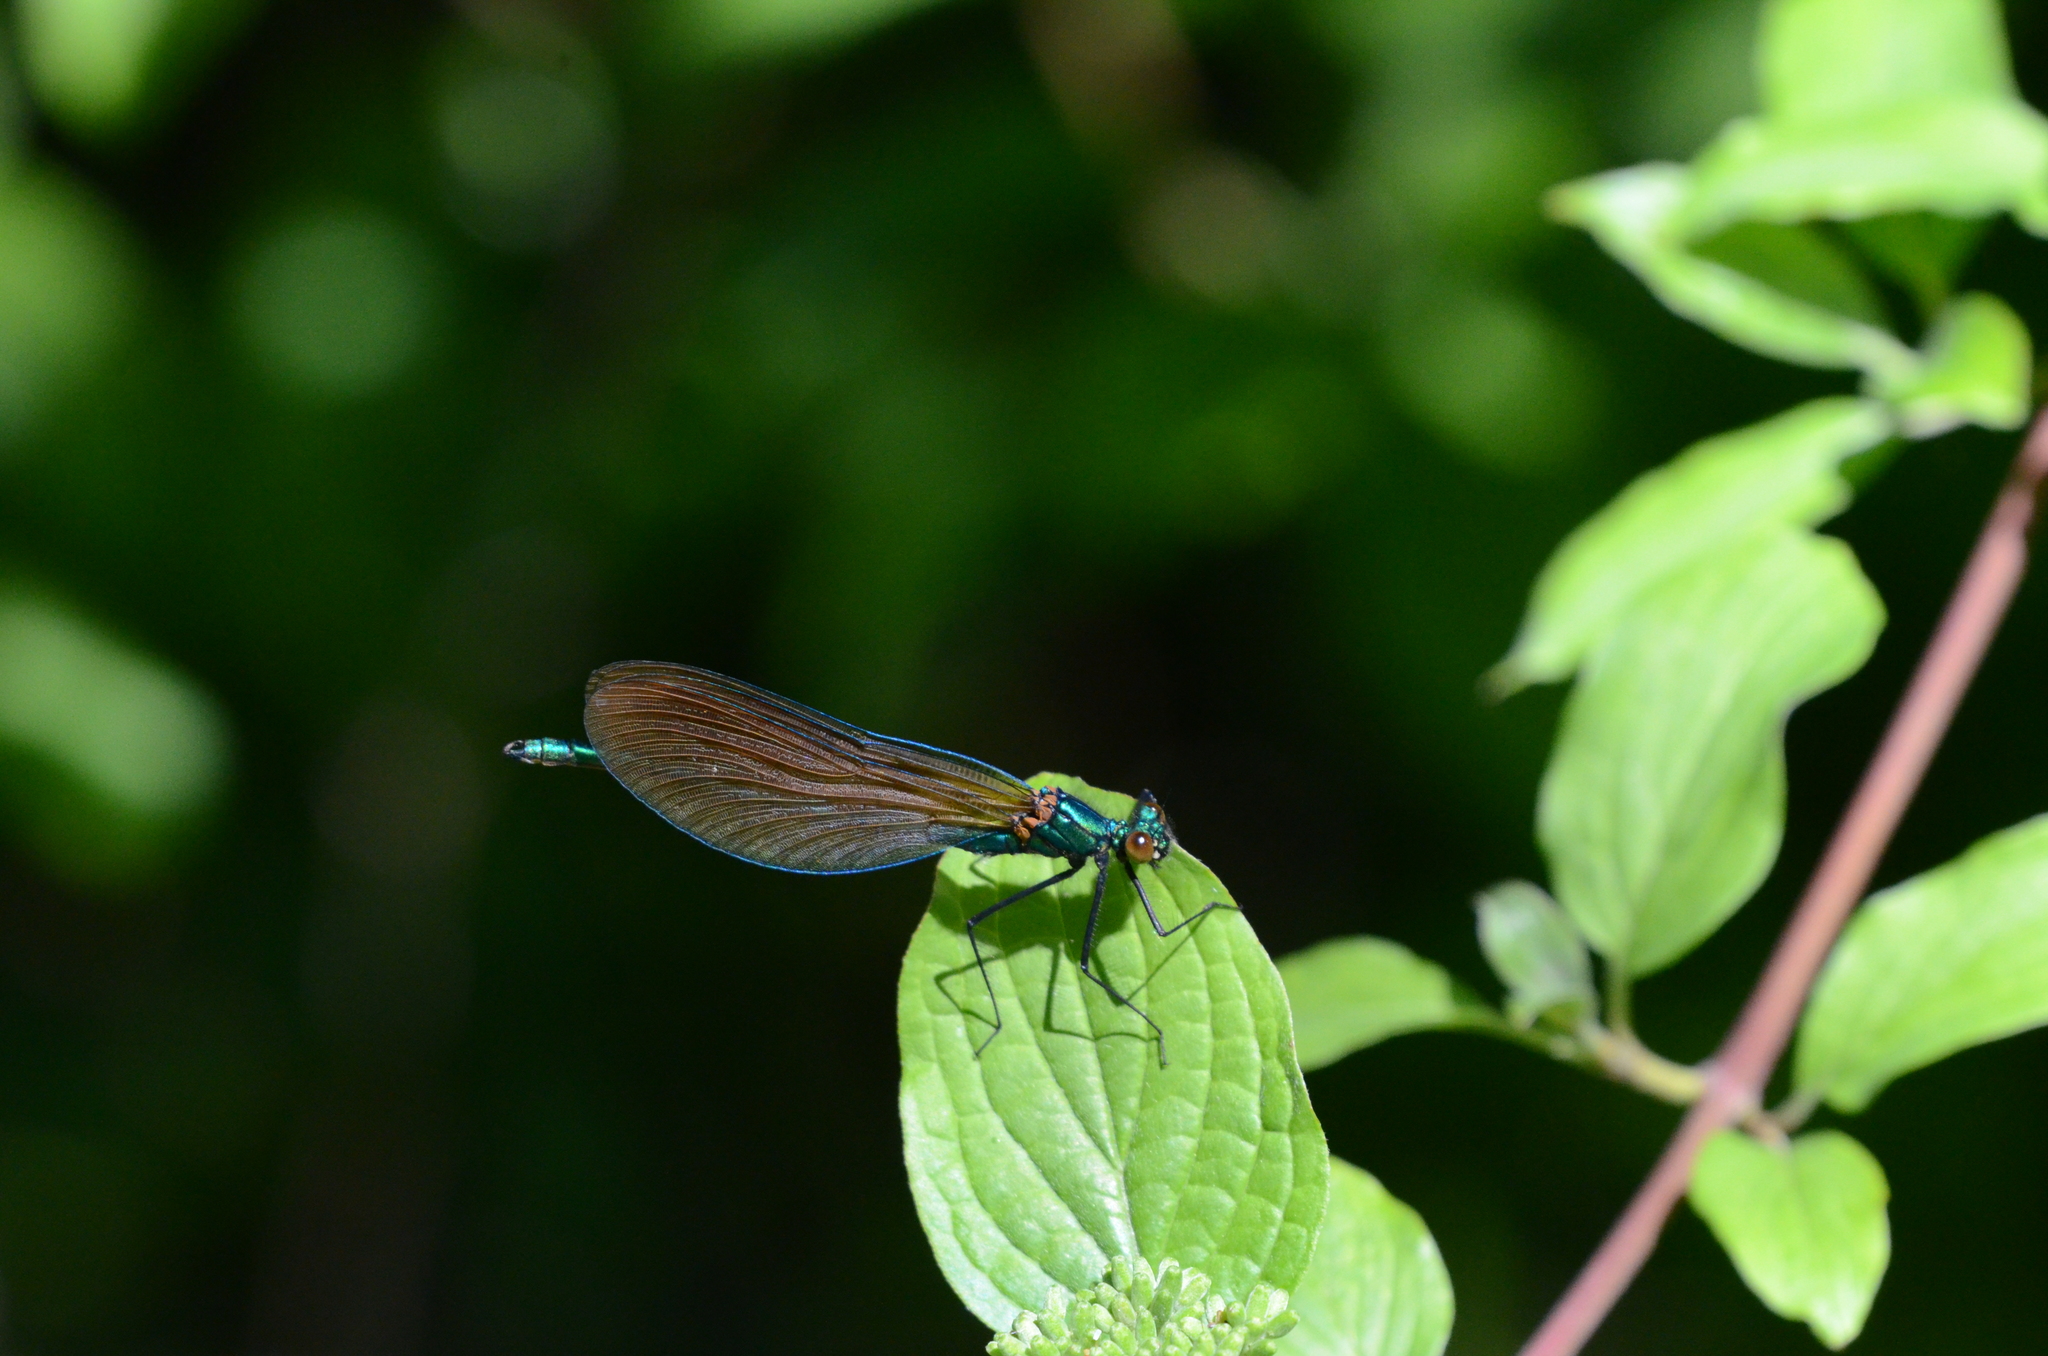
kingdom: Animalia
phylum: Arthropoda
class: Insecta
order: Odonata
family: Calopterygidae
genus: Calopteryx
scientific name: Calopteryx virgo
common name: Beautiful demoiselle
